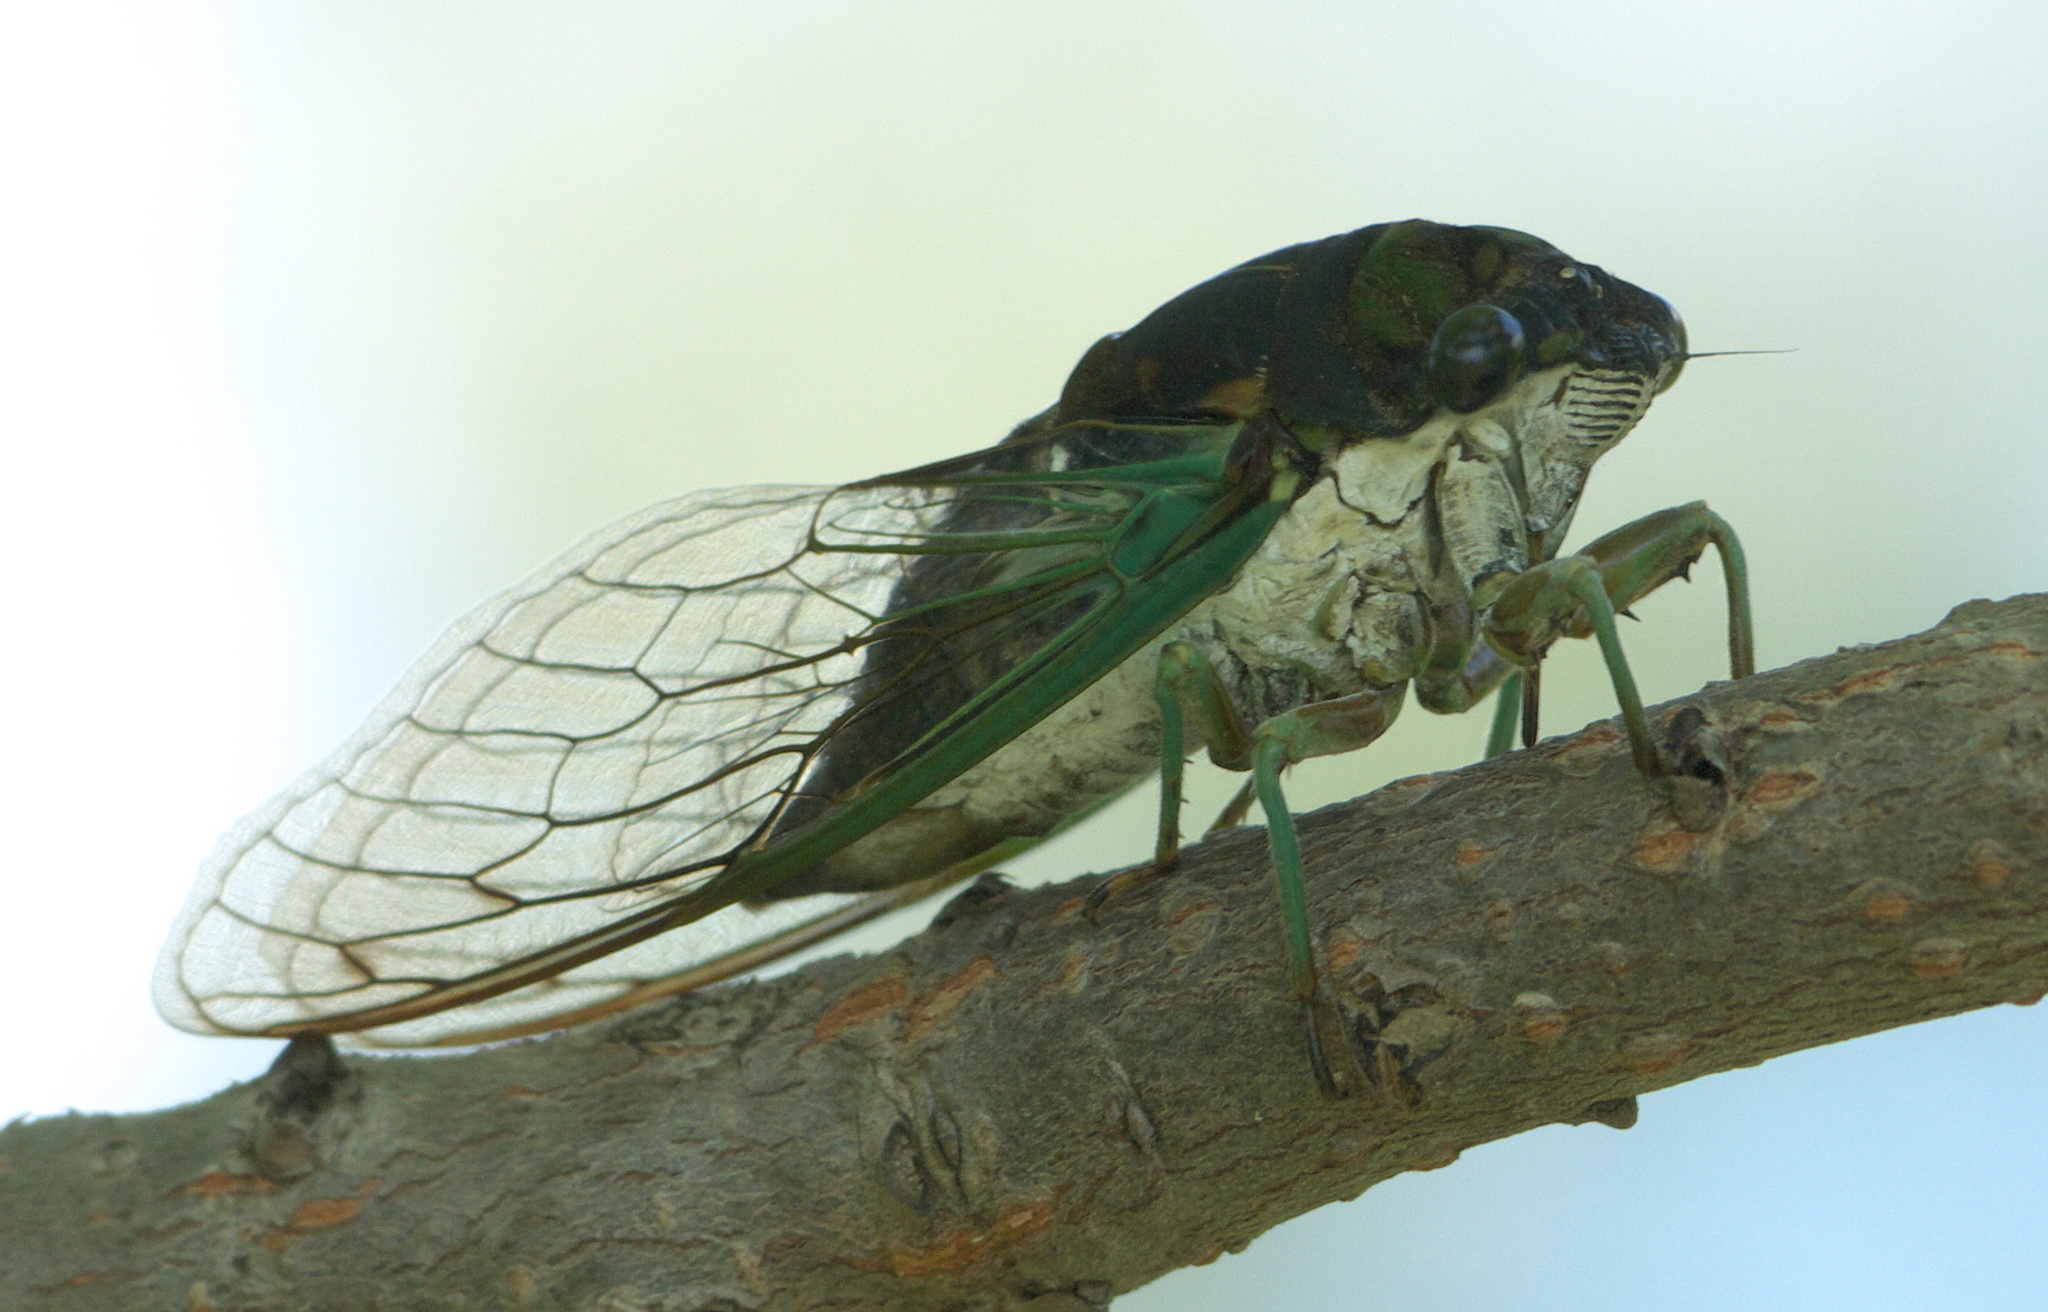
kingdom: Animalia
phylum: Arthropoda
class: Insecta
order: Hemiptera
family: Cicadidae
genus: Neotibicen
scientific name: Neotibicen tibicen
